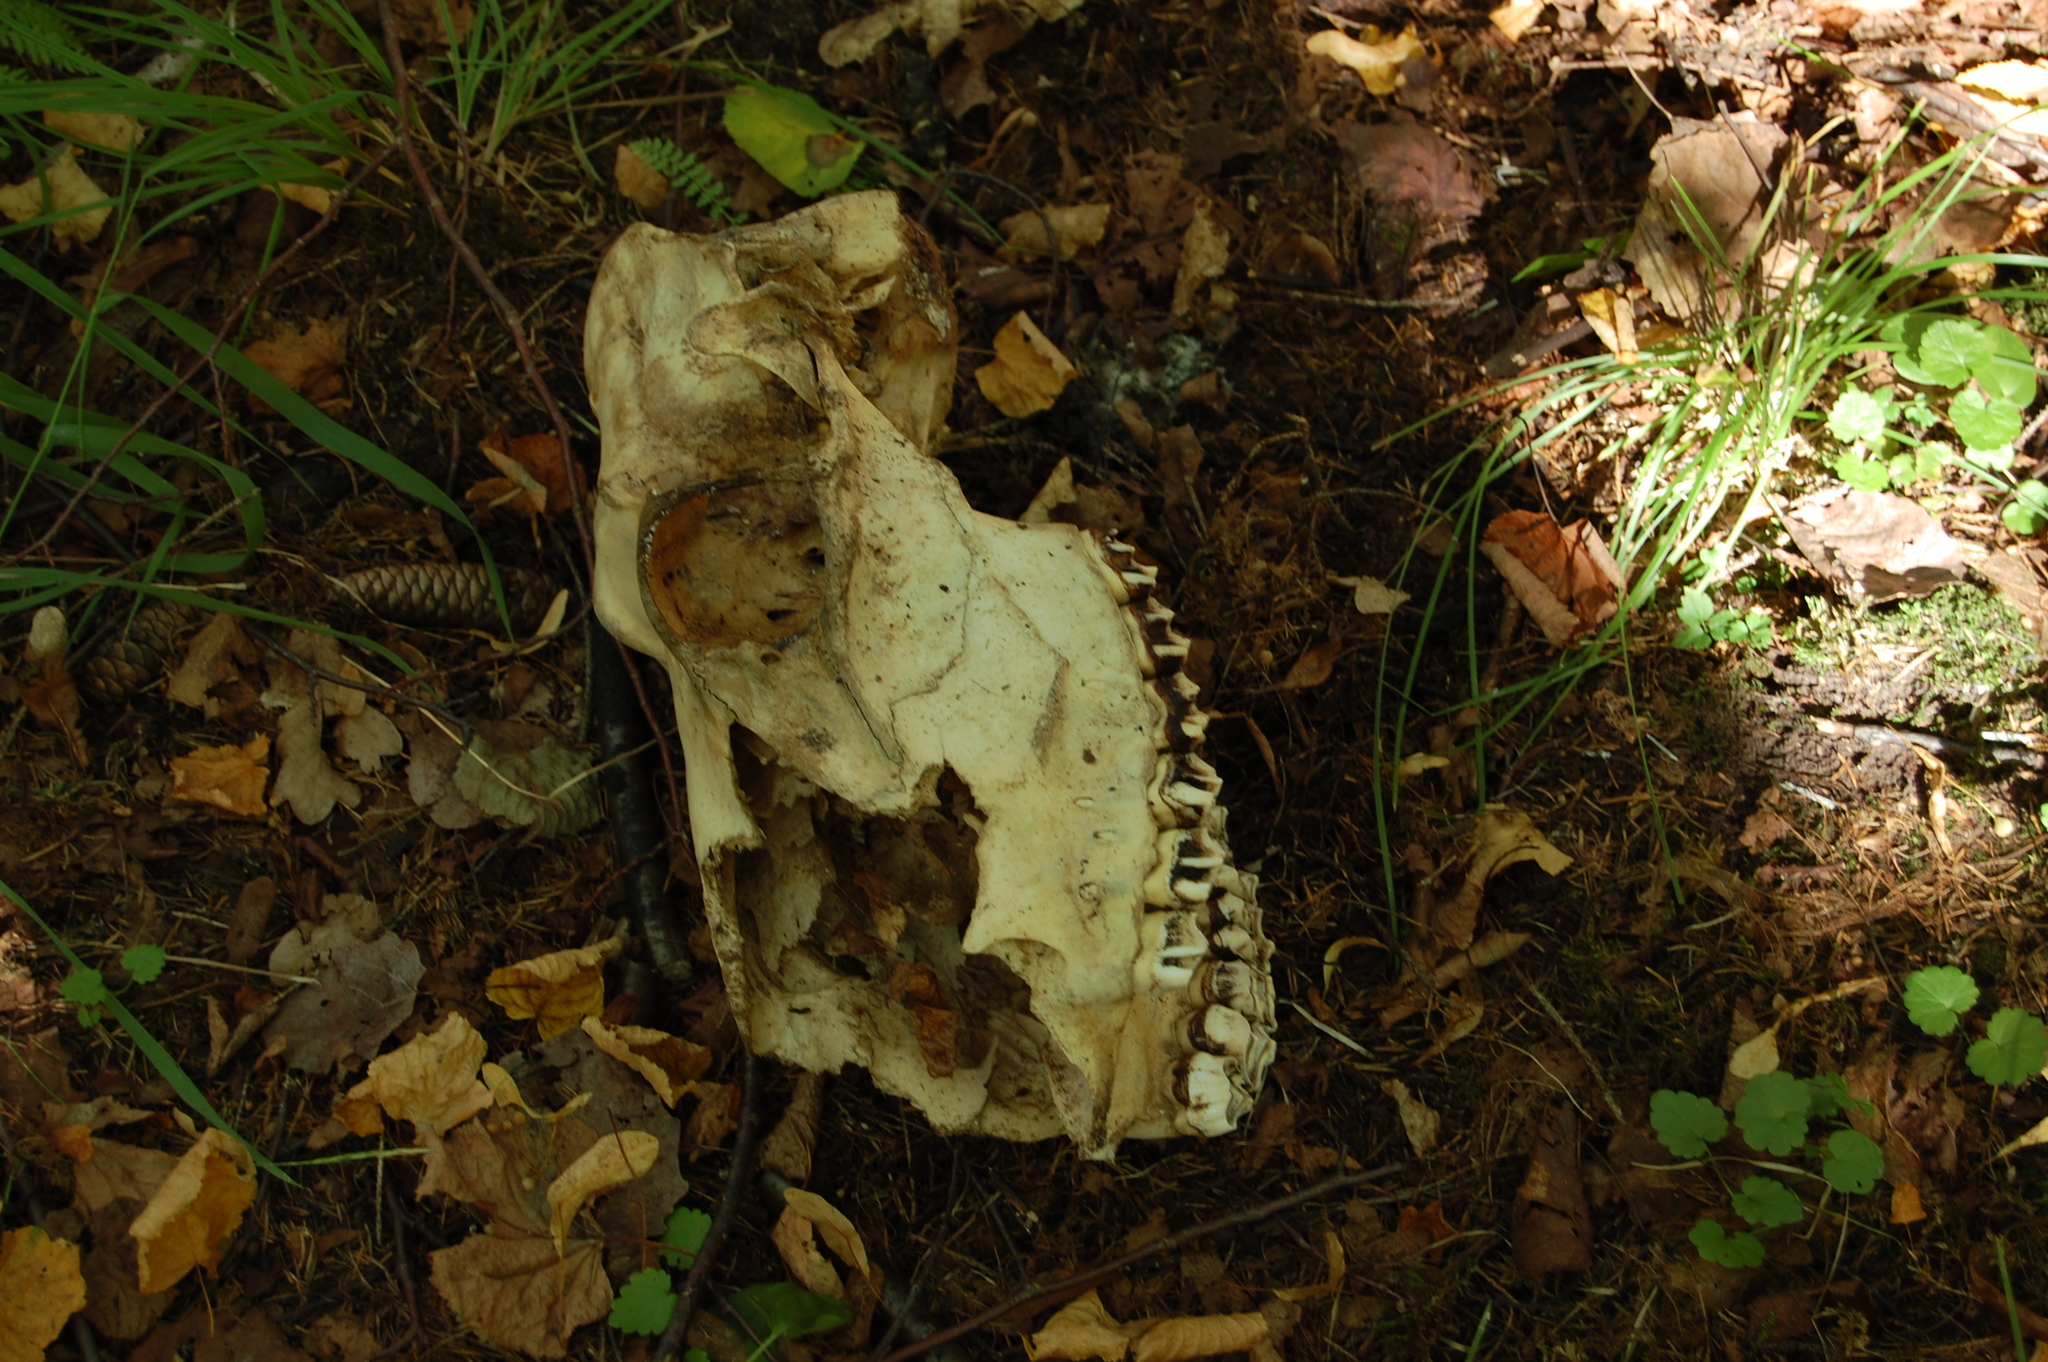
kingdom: Animalia
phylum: Chordata
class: Mammalia
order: Artiodactyla
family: Cervidae
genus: Alces
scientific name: Alces alces
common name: Moose
